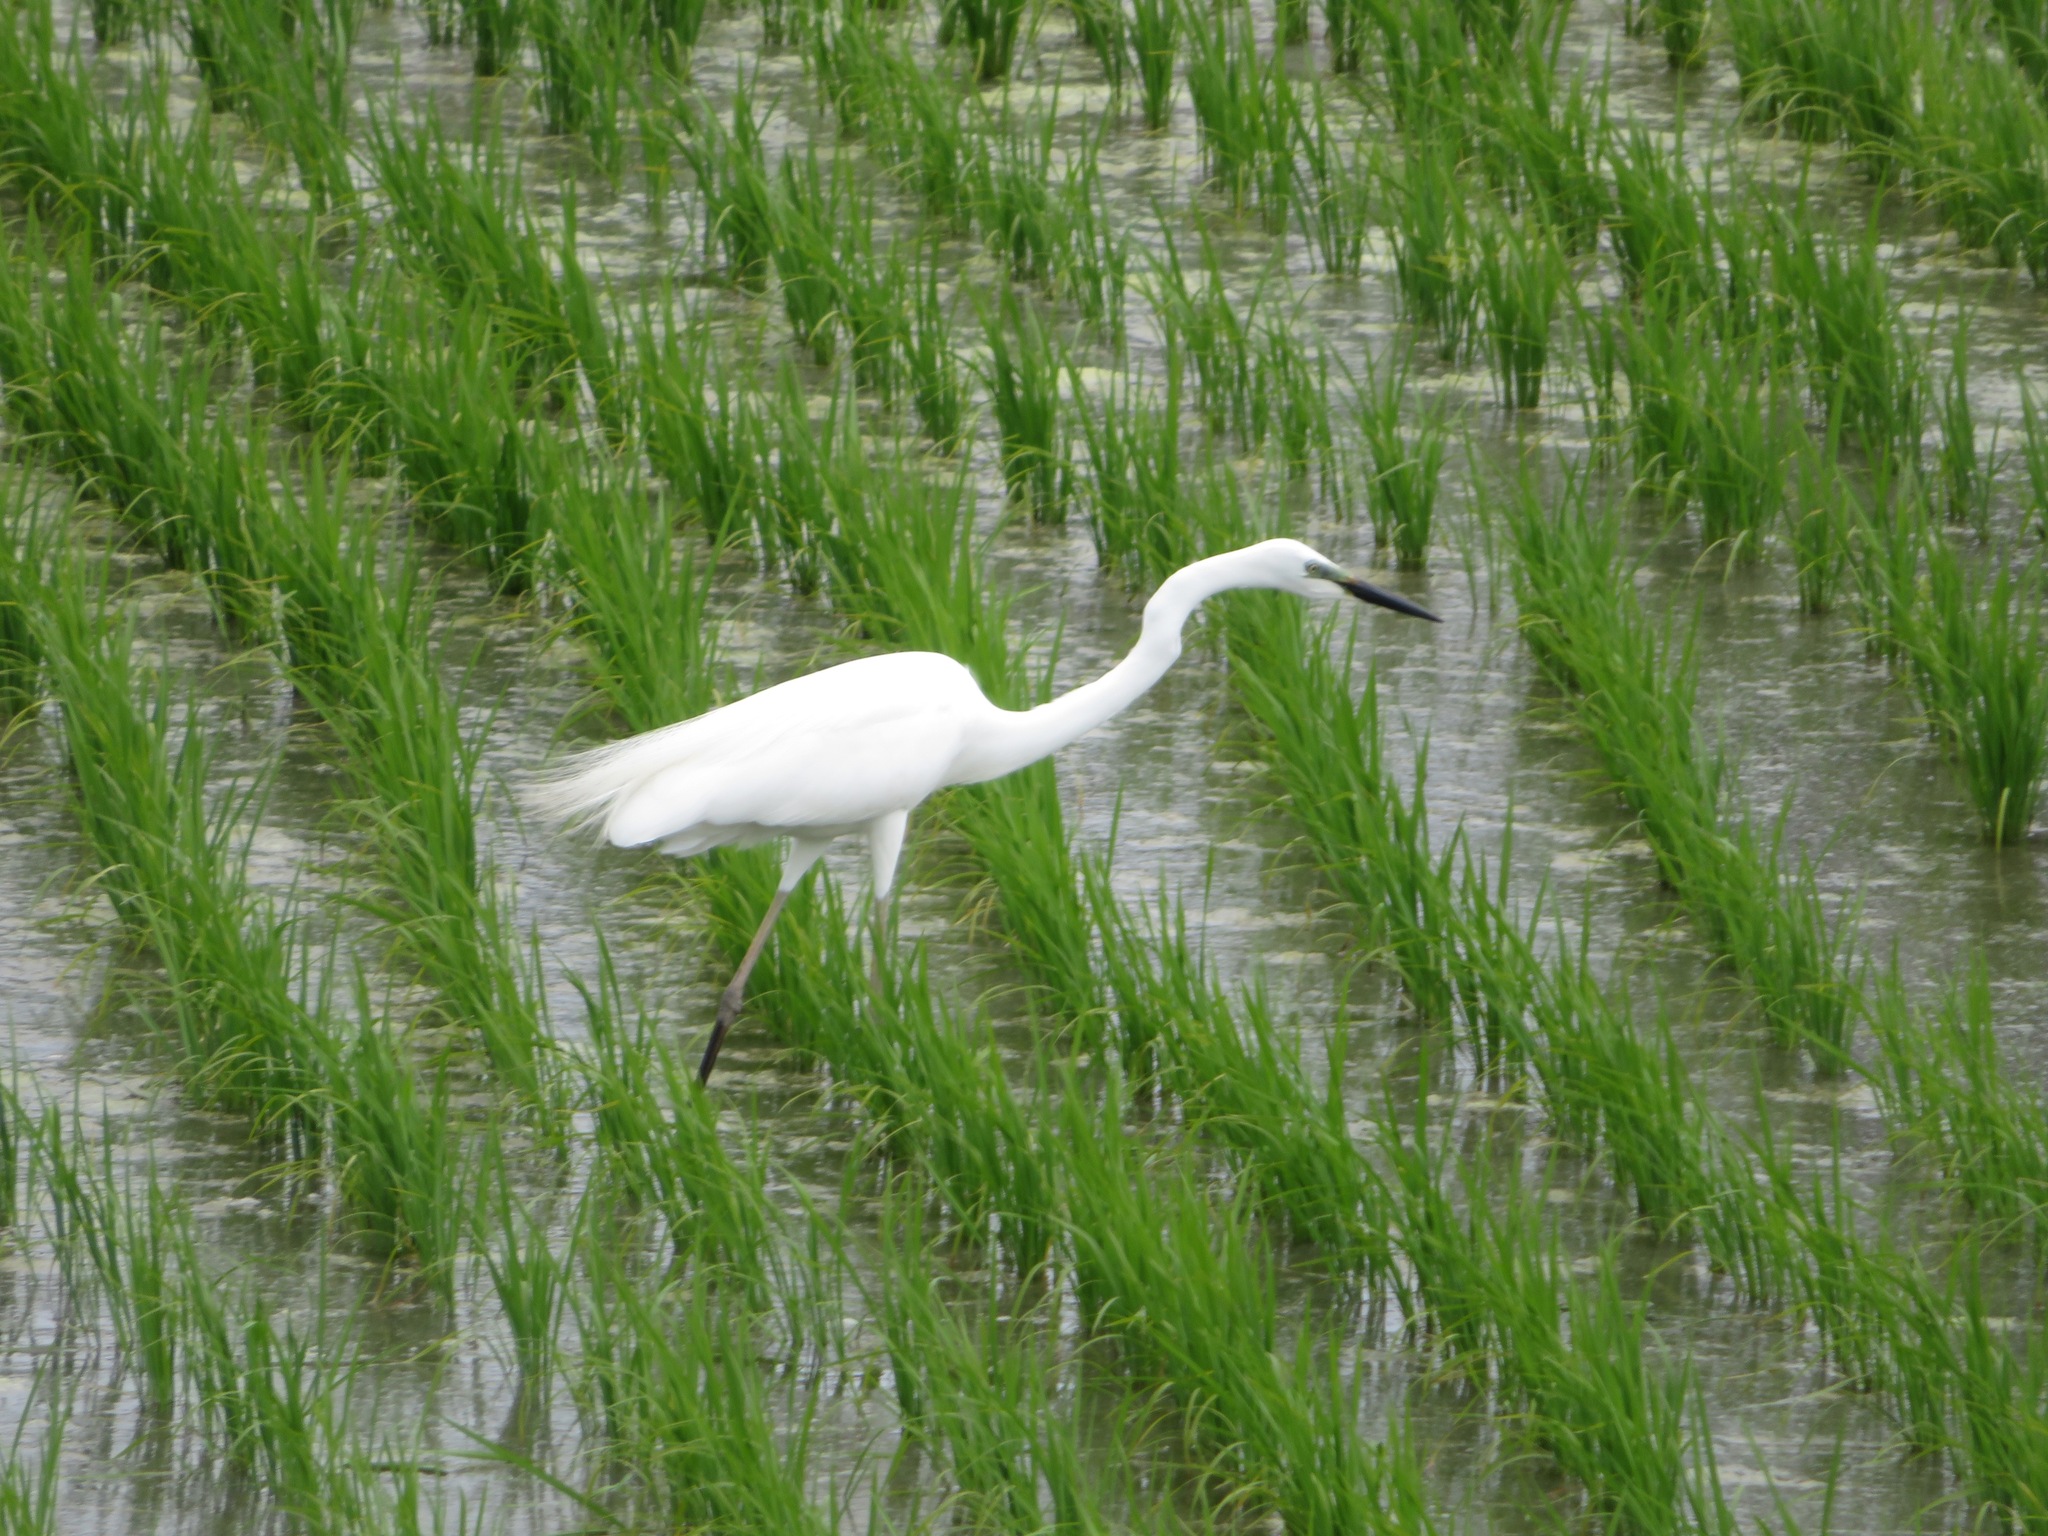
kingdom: Animalia
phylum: Chordata
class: Aves
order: Pelecaniformes
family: Ardeidae
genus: Ardea
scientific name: Ardea alba
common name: Great egret
